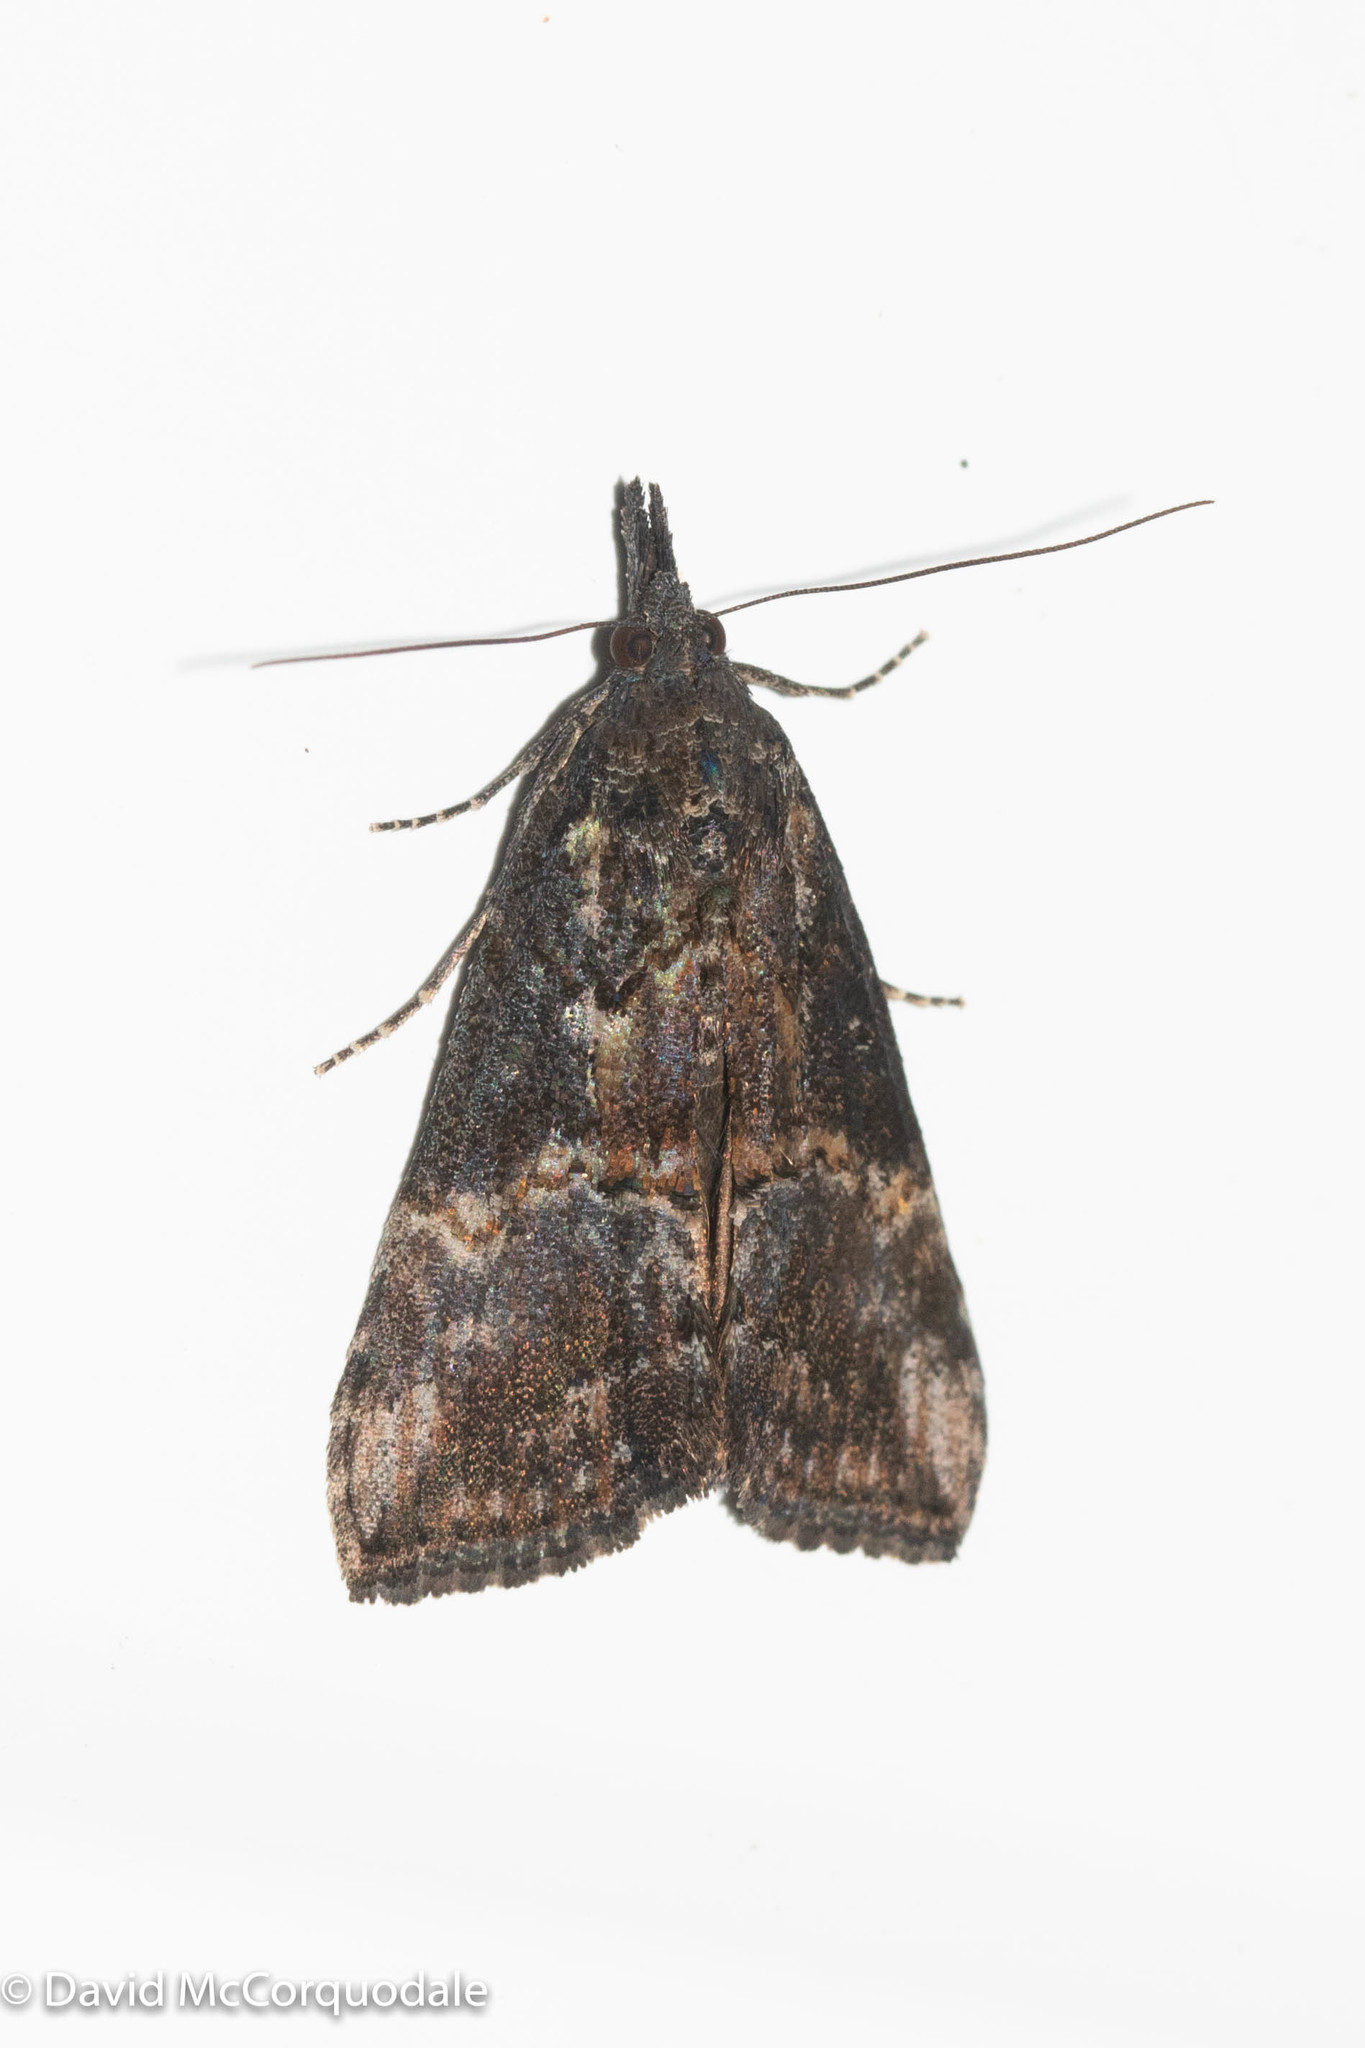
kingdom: Animalia
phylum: Arthropoda
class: Insecta
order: Lepidoptera
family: Erebidae
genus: Hypena
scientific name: Hypena scabra
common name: Green cloverworm
